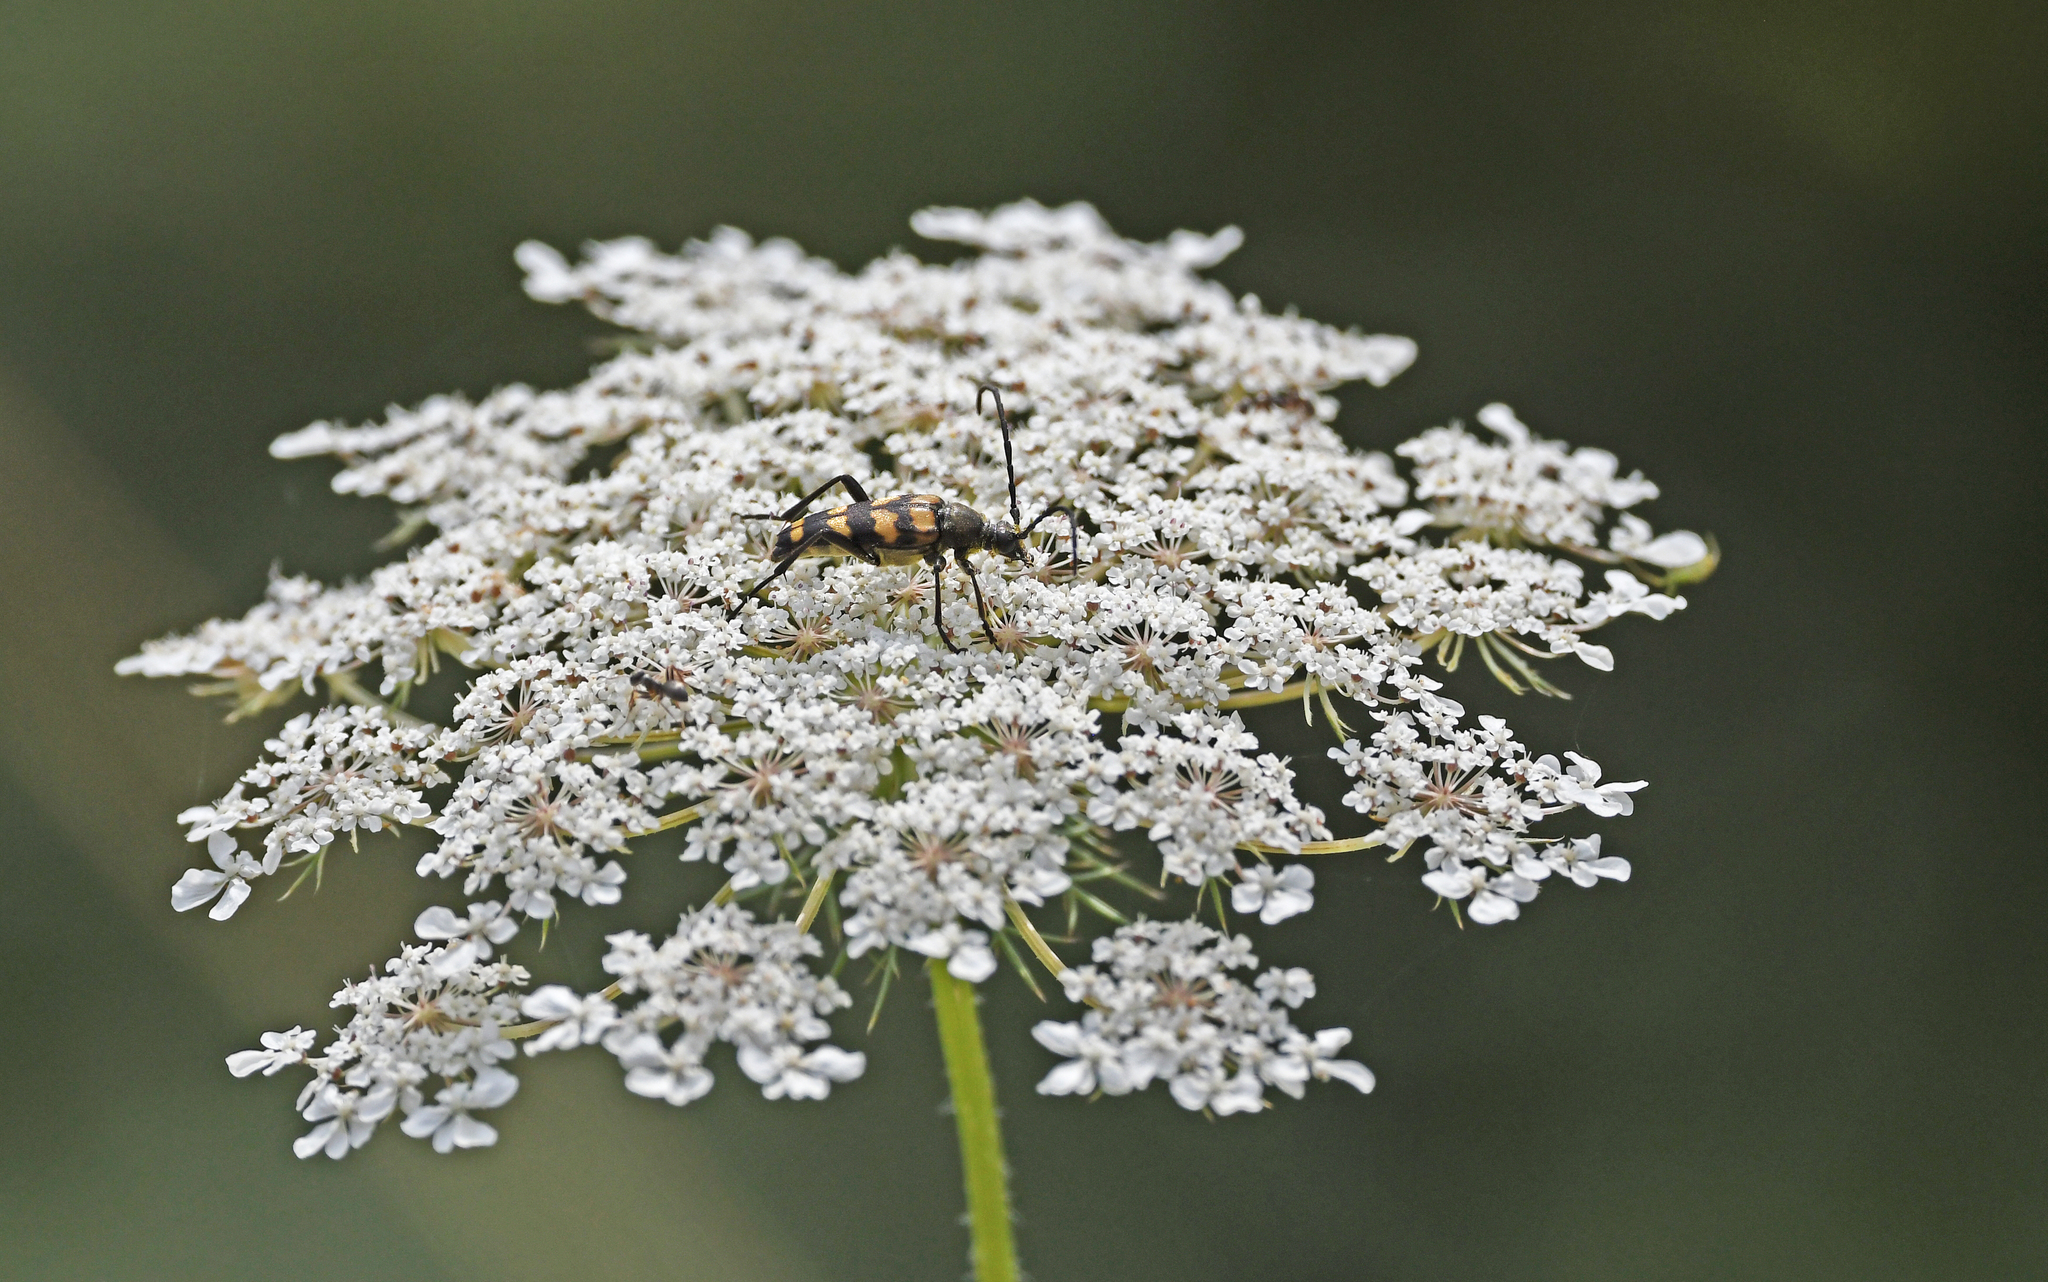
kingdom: Animalia
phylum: Arthropoda
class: Insecta
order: Coleoptera
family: Cerambycidae
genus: Leptura
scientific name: Leptura quadrifasciata
